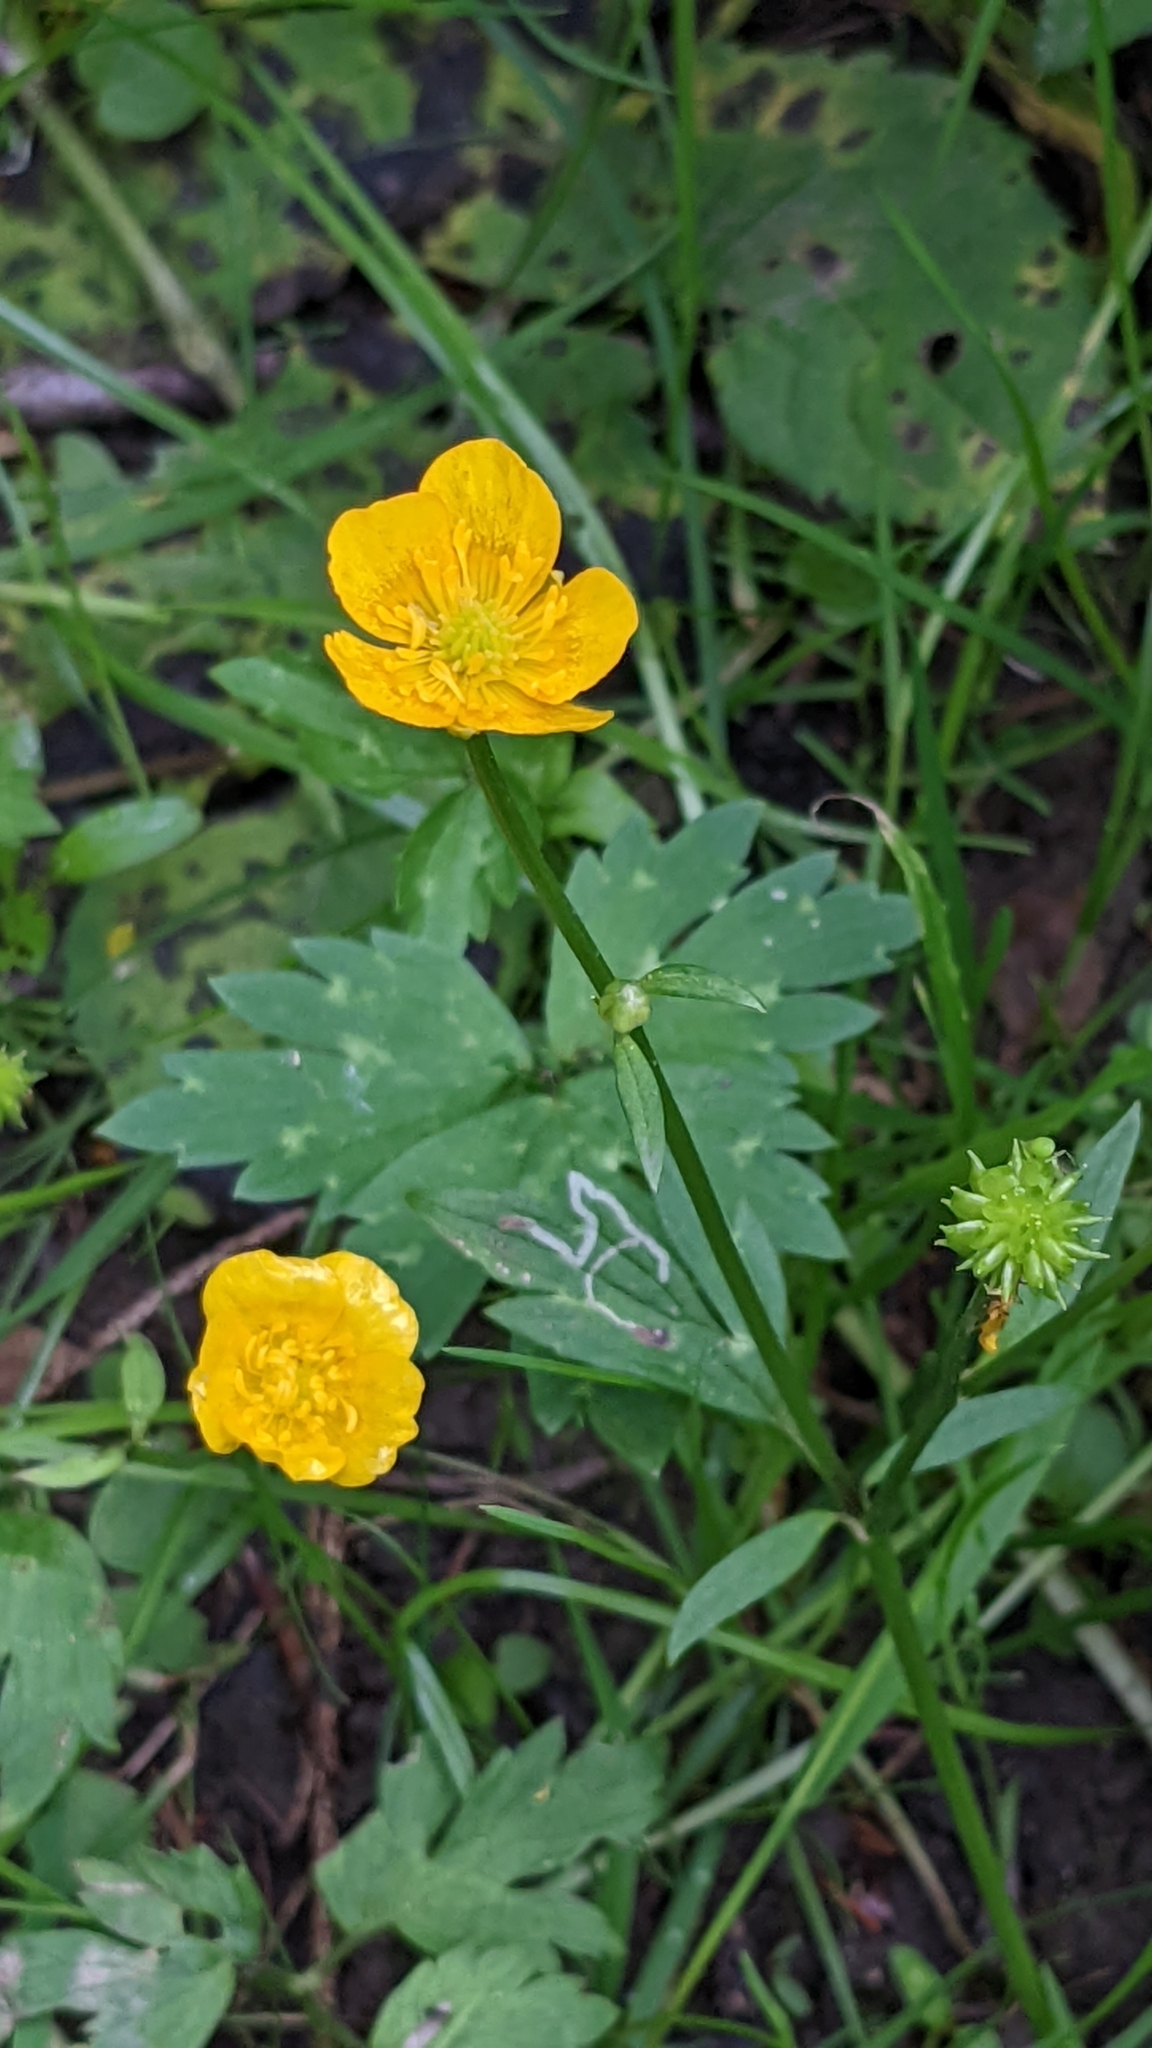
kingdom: Plantae
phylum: Tracheophyta
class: Magnoliopsida
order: Ranunculales
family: Ranunculaceae
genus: Ranunculus
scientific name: Ranunculus repens
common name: Creeping buttercup
